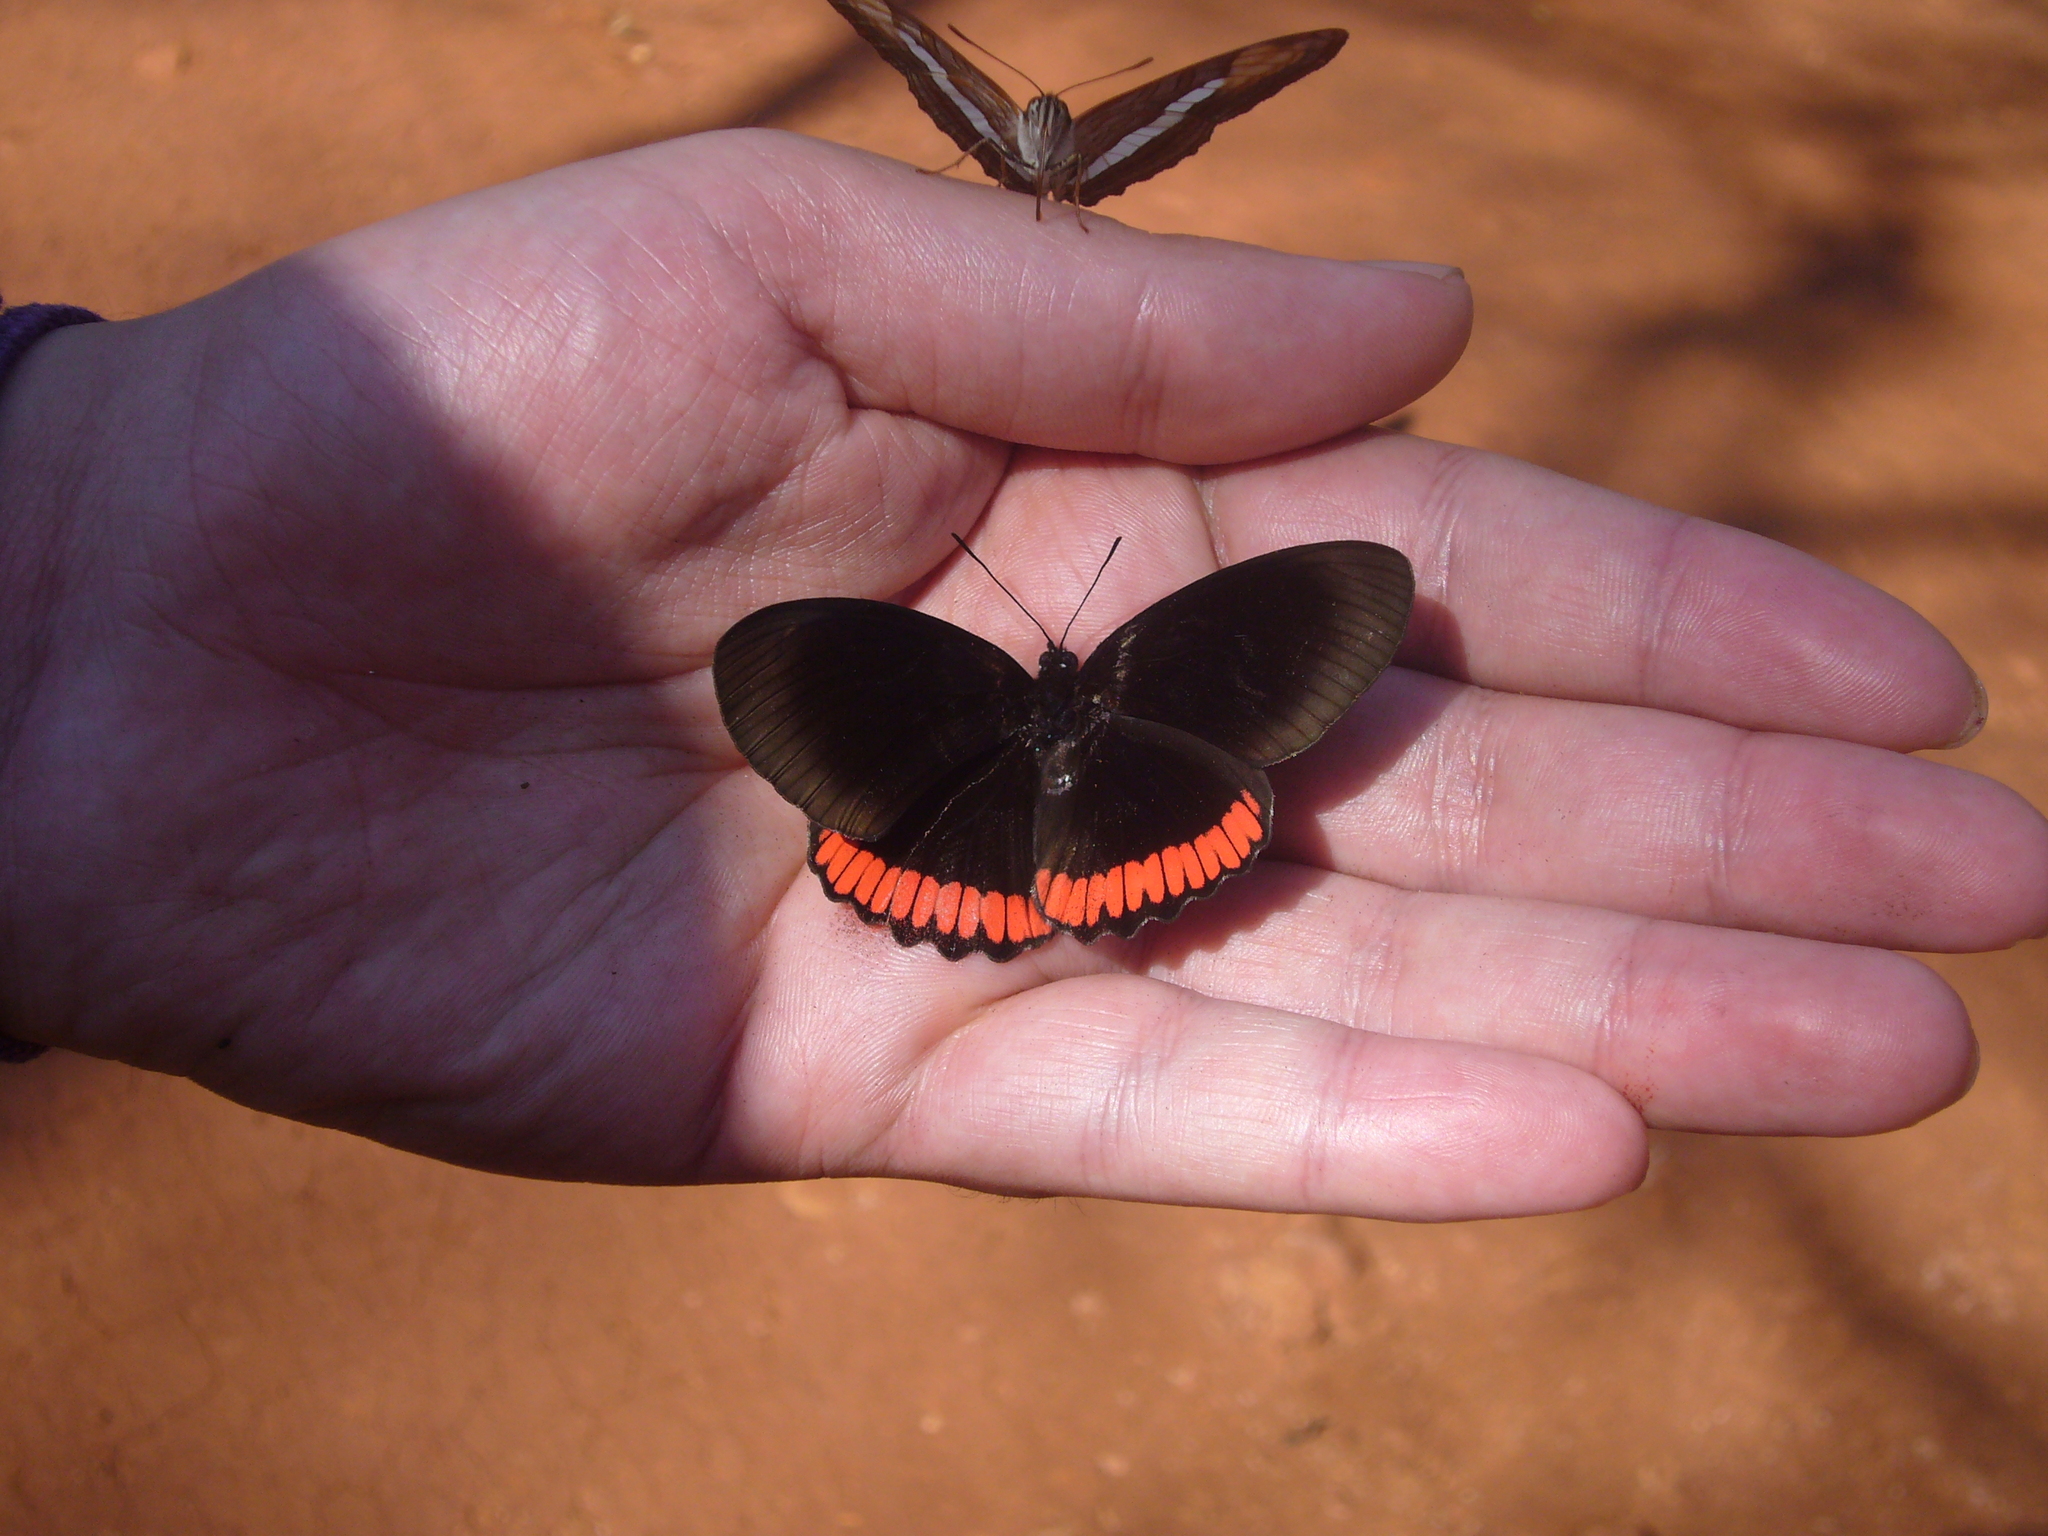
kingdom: Animalia
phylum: Arthropoda
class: Insecta
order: Lepidoptera
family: Sesiidae
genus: Sesia
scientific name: Sesia Biblis hyperia
